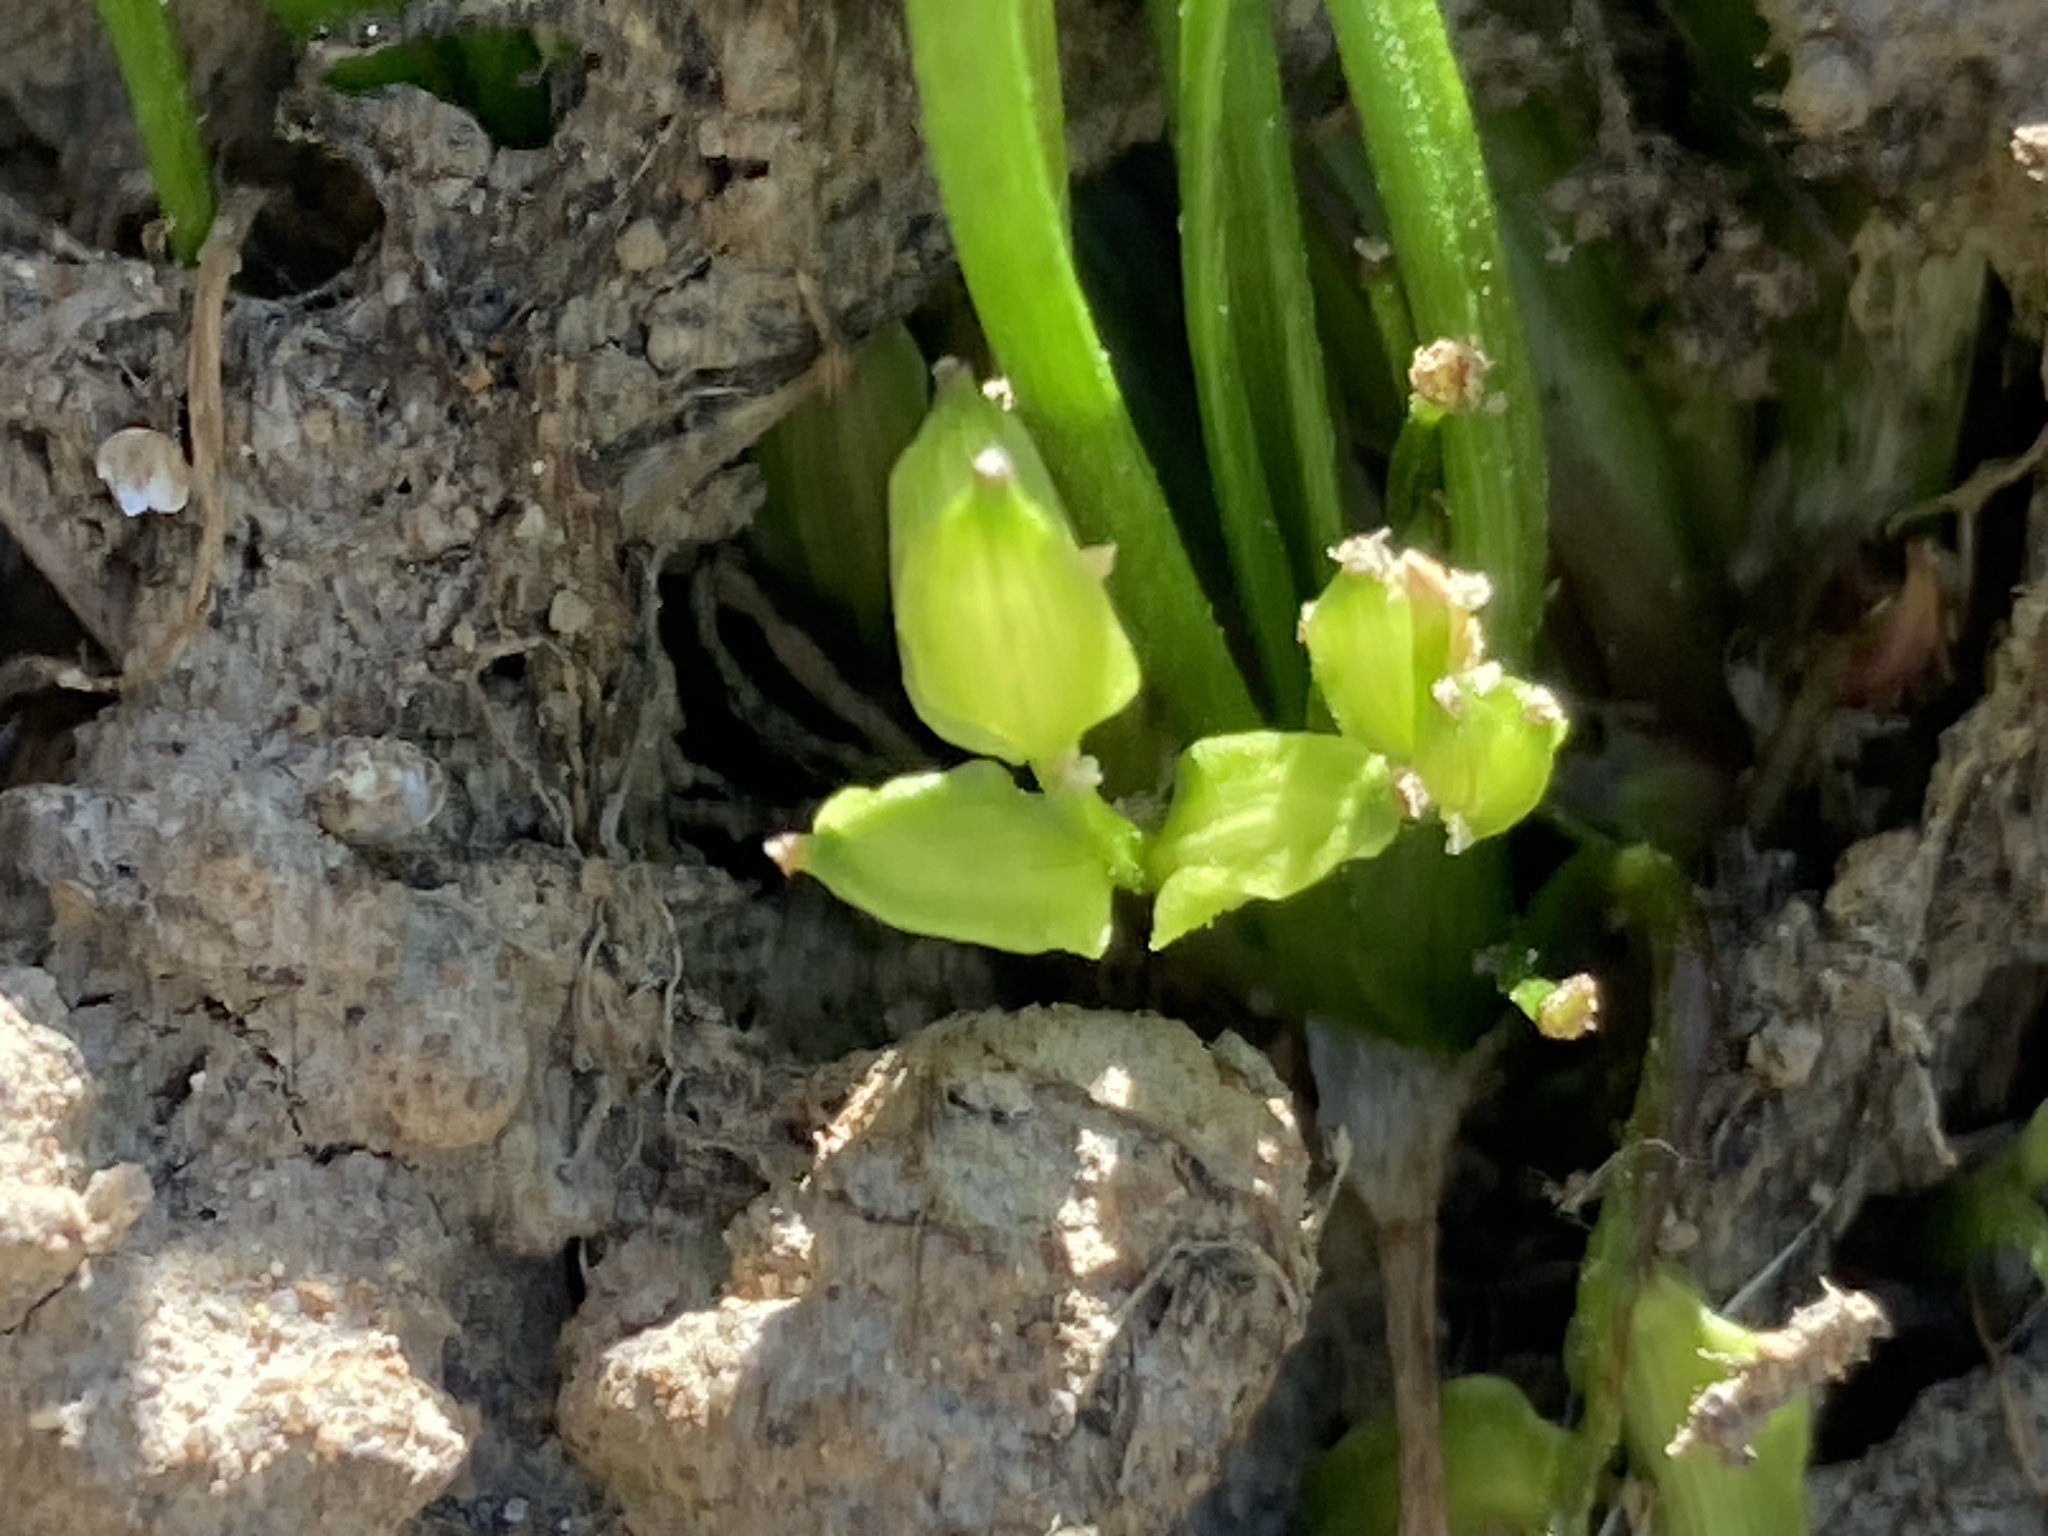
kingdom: Plantae
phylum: Tracheophyta
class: Liliopsida
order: Alismatales
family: Juncaginaceae
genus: Triglochin
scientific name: Triglochin scilloides
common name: Awl-leaved lilaea
